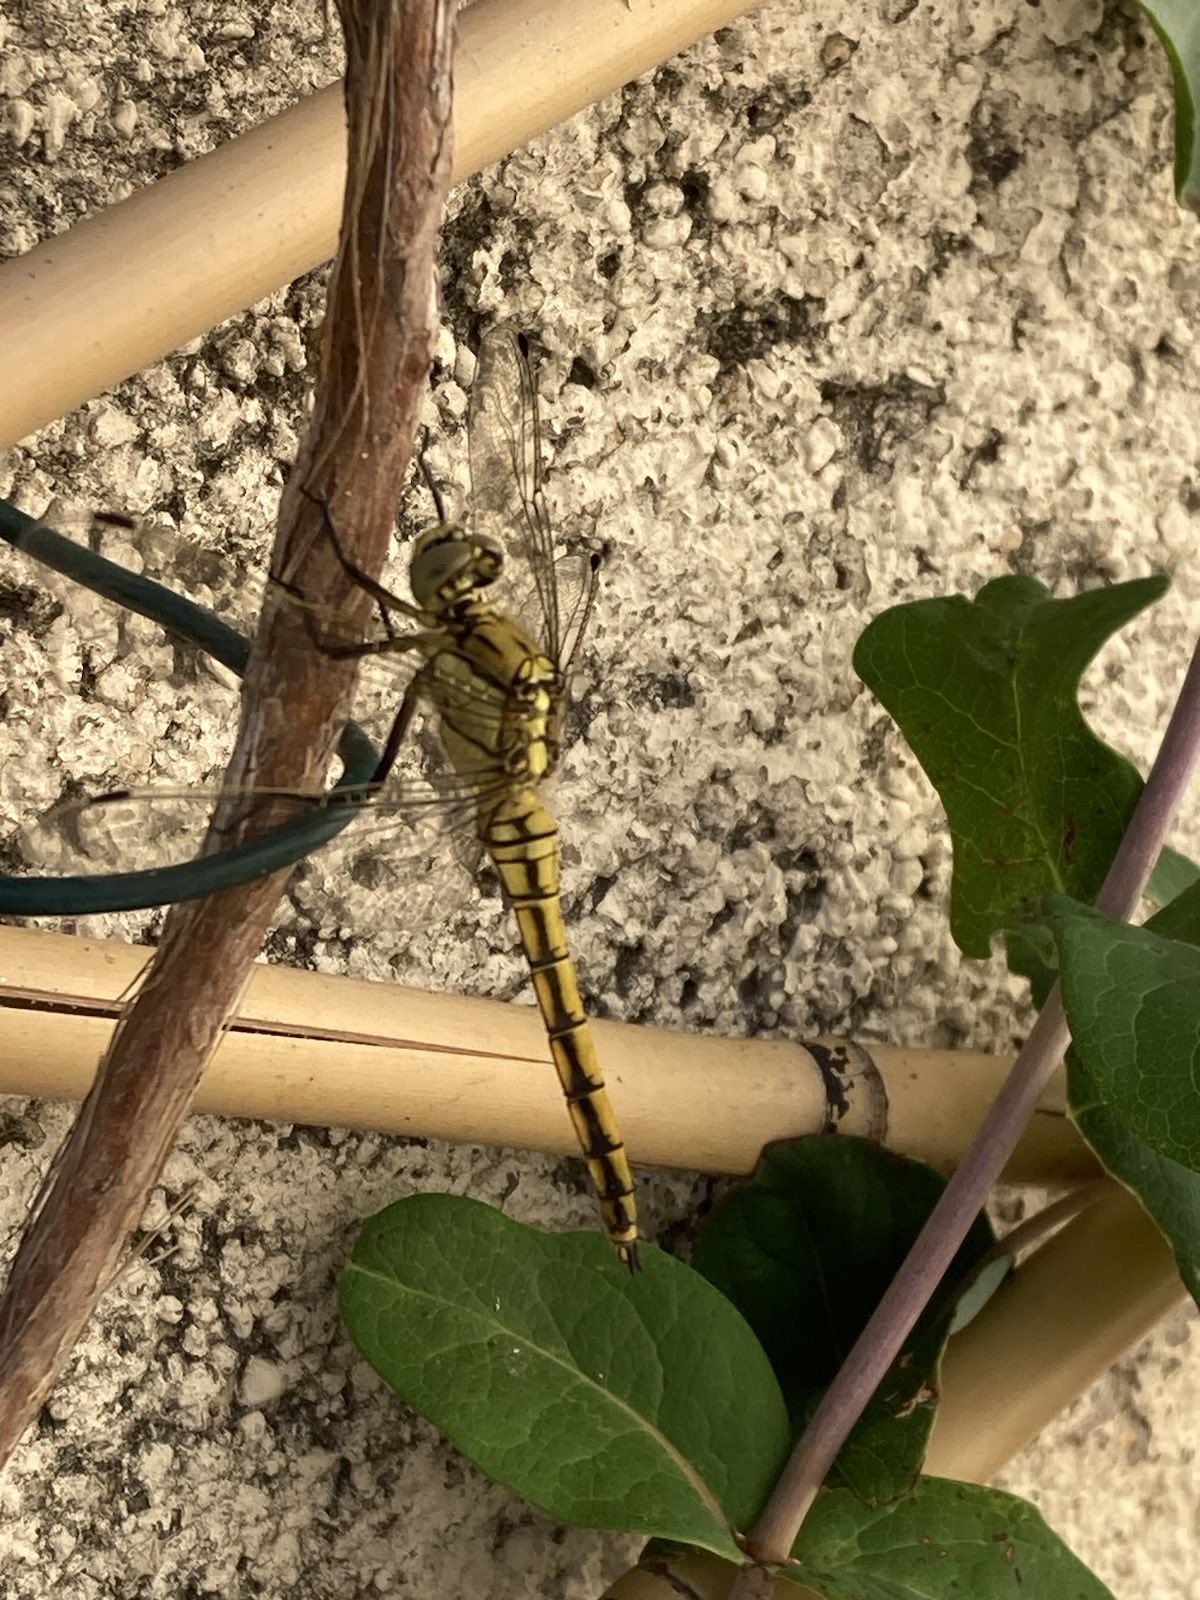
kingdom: Animalia
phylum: Arthropoda
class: Insecta
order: Odonata
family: Libellulidae
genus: Orthetrum
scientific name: Orthetrum cancellatum
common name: Black-tailed skimmer
